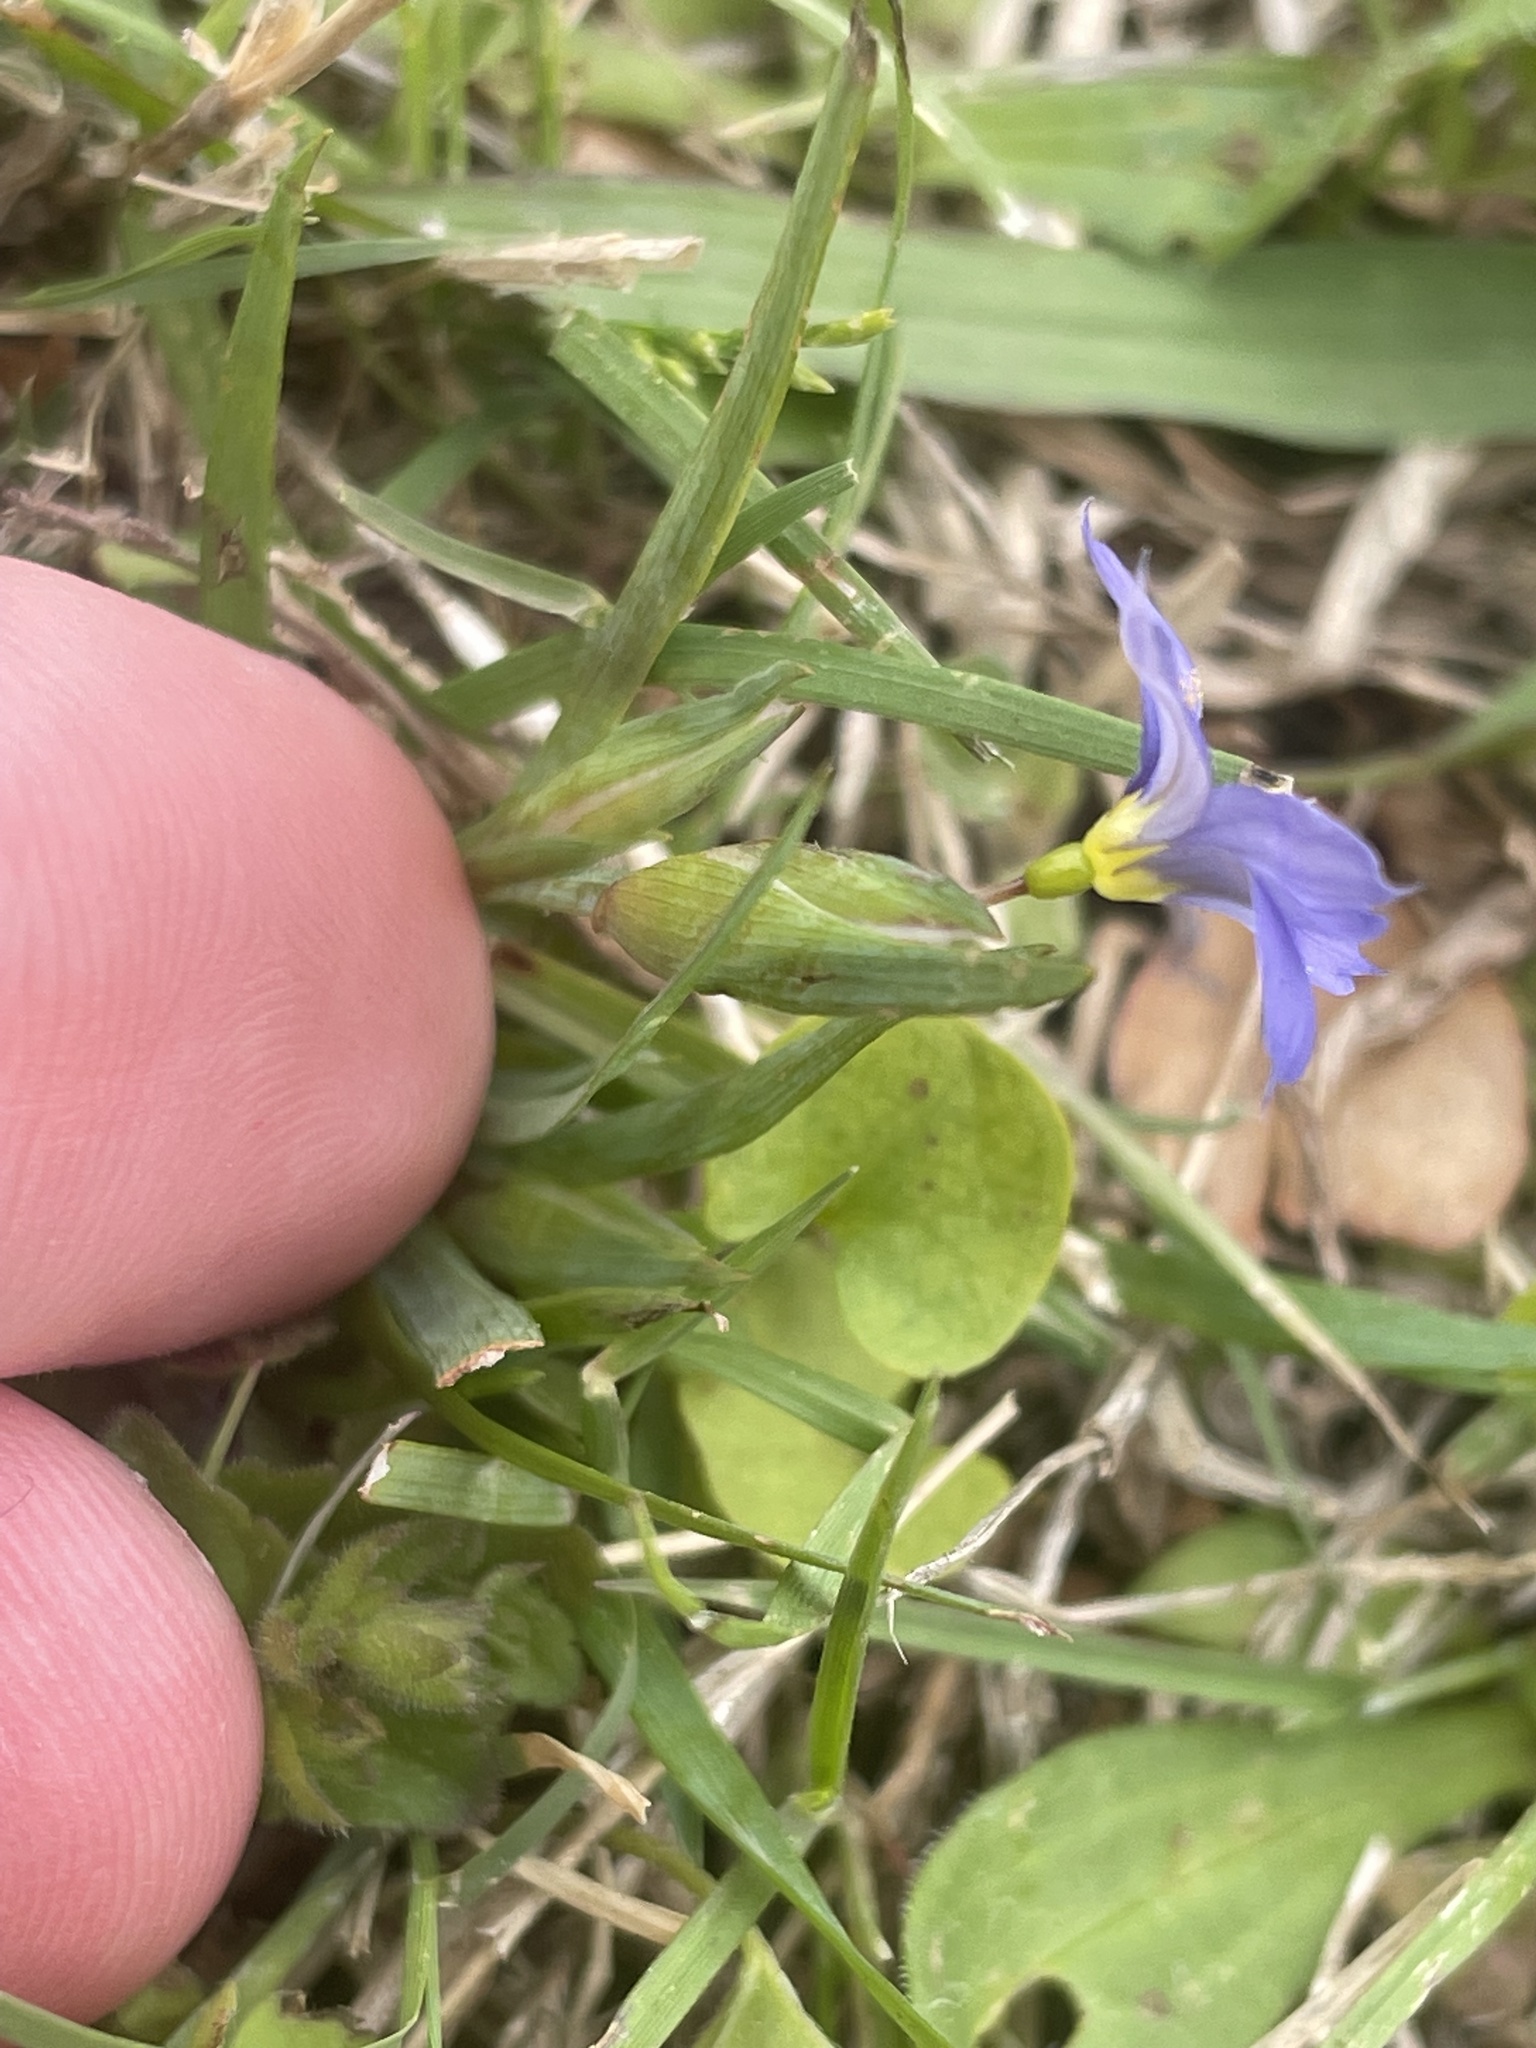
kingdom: Plantae
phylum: Tracheophyta
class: Liliopsida
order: Asparagales
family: Iridaceae
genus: Sisyrinchium
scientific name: Sisyrinchium pruinosum
